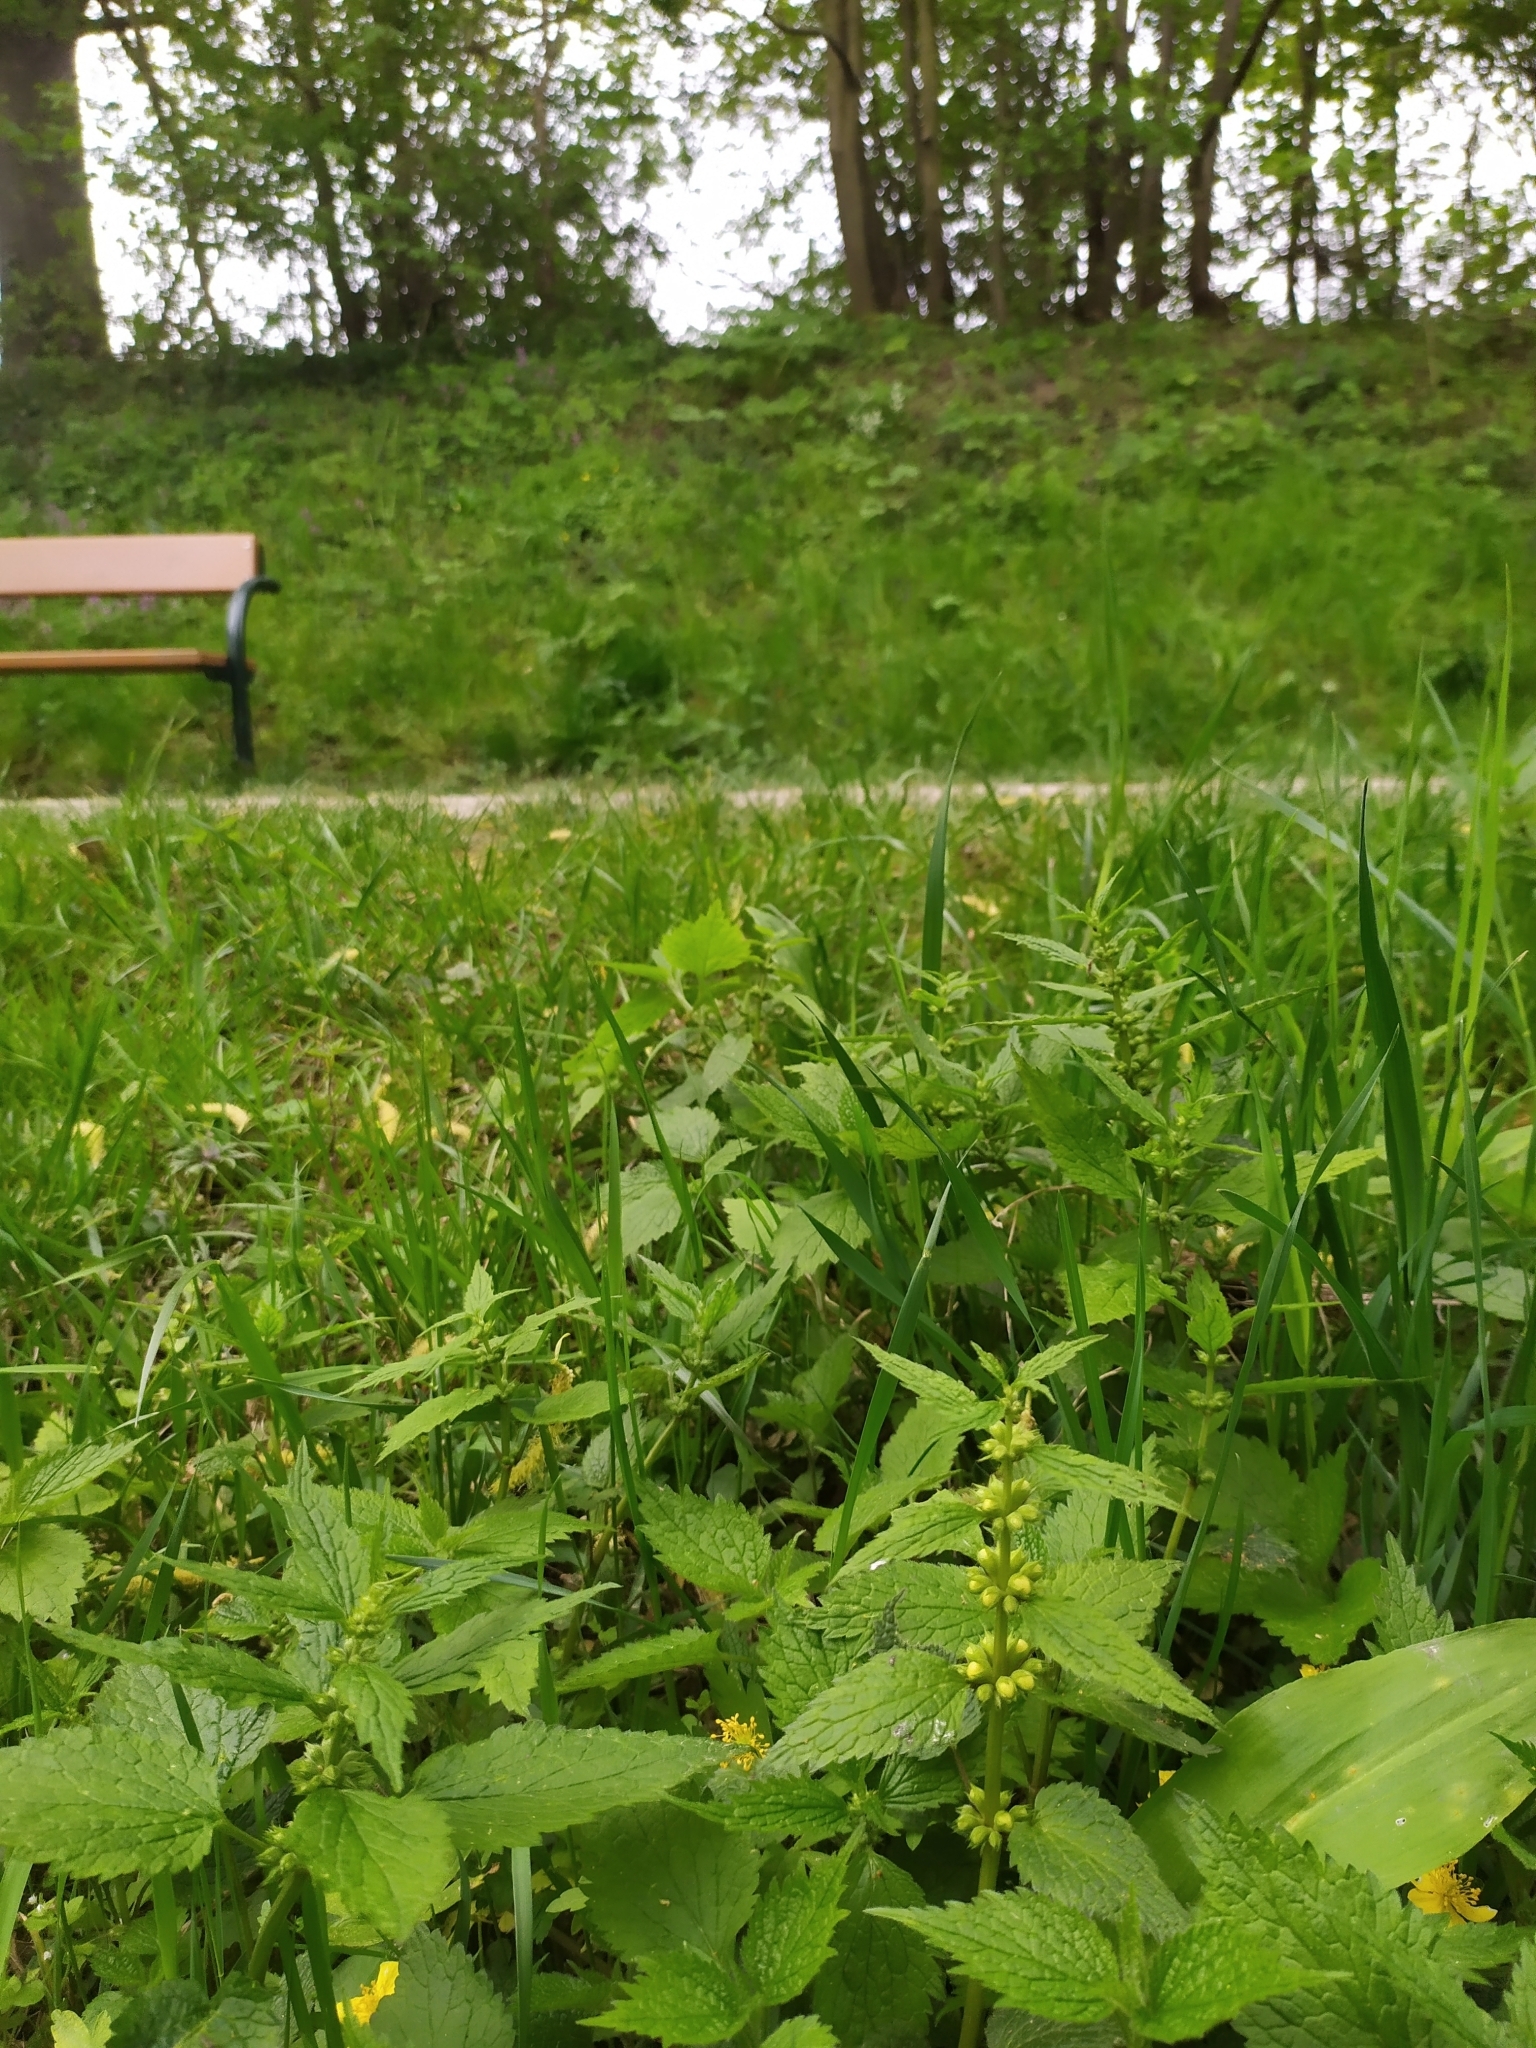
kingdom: Plantae
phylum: Tracheophyta
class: Magnoliopsida
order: Lamiales
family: Lamiaceae
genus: Lamium
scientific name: Lamium galeobdolon
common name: Yellow archangel
